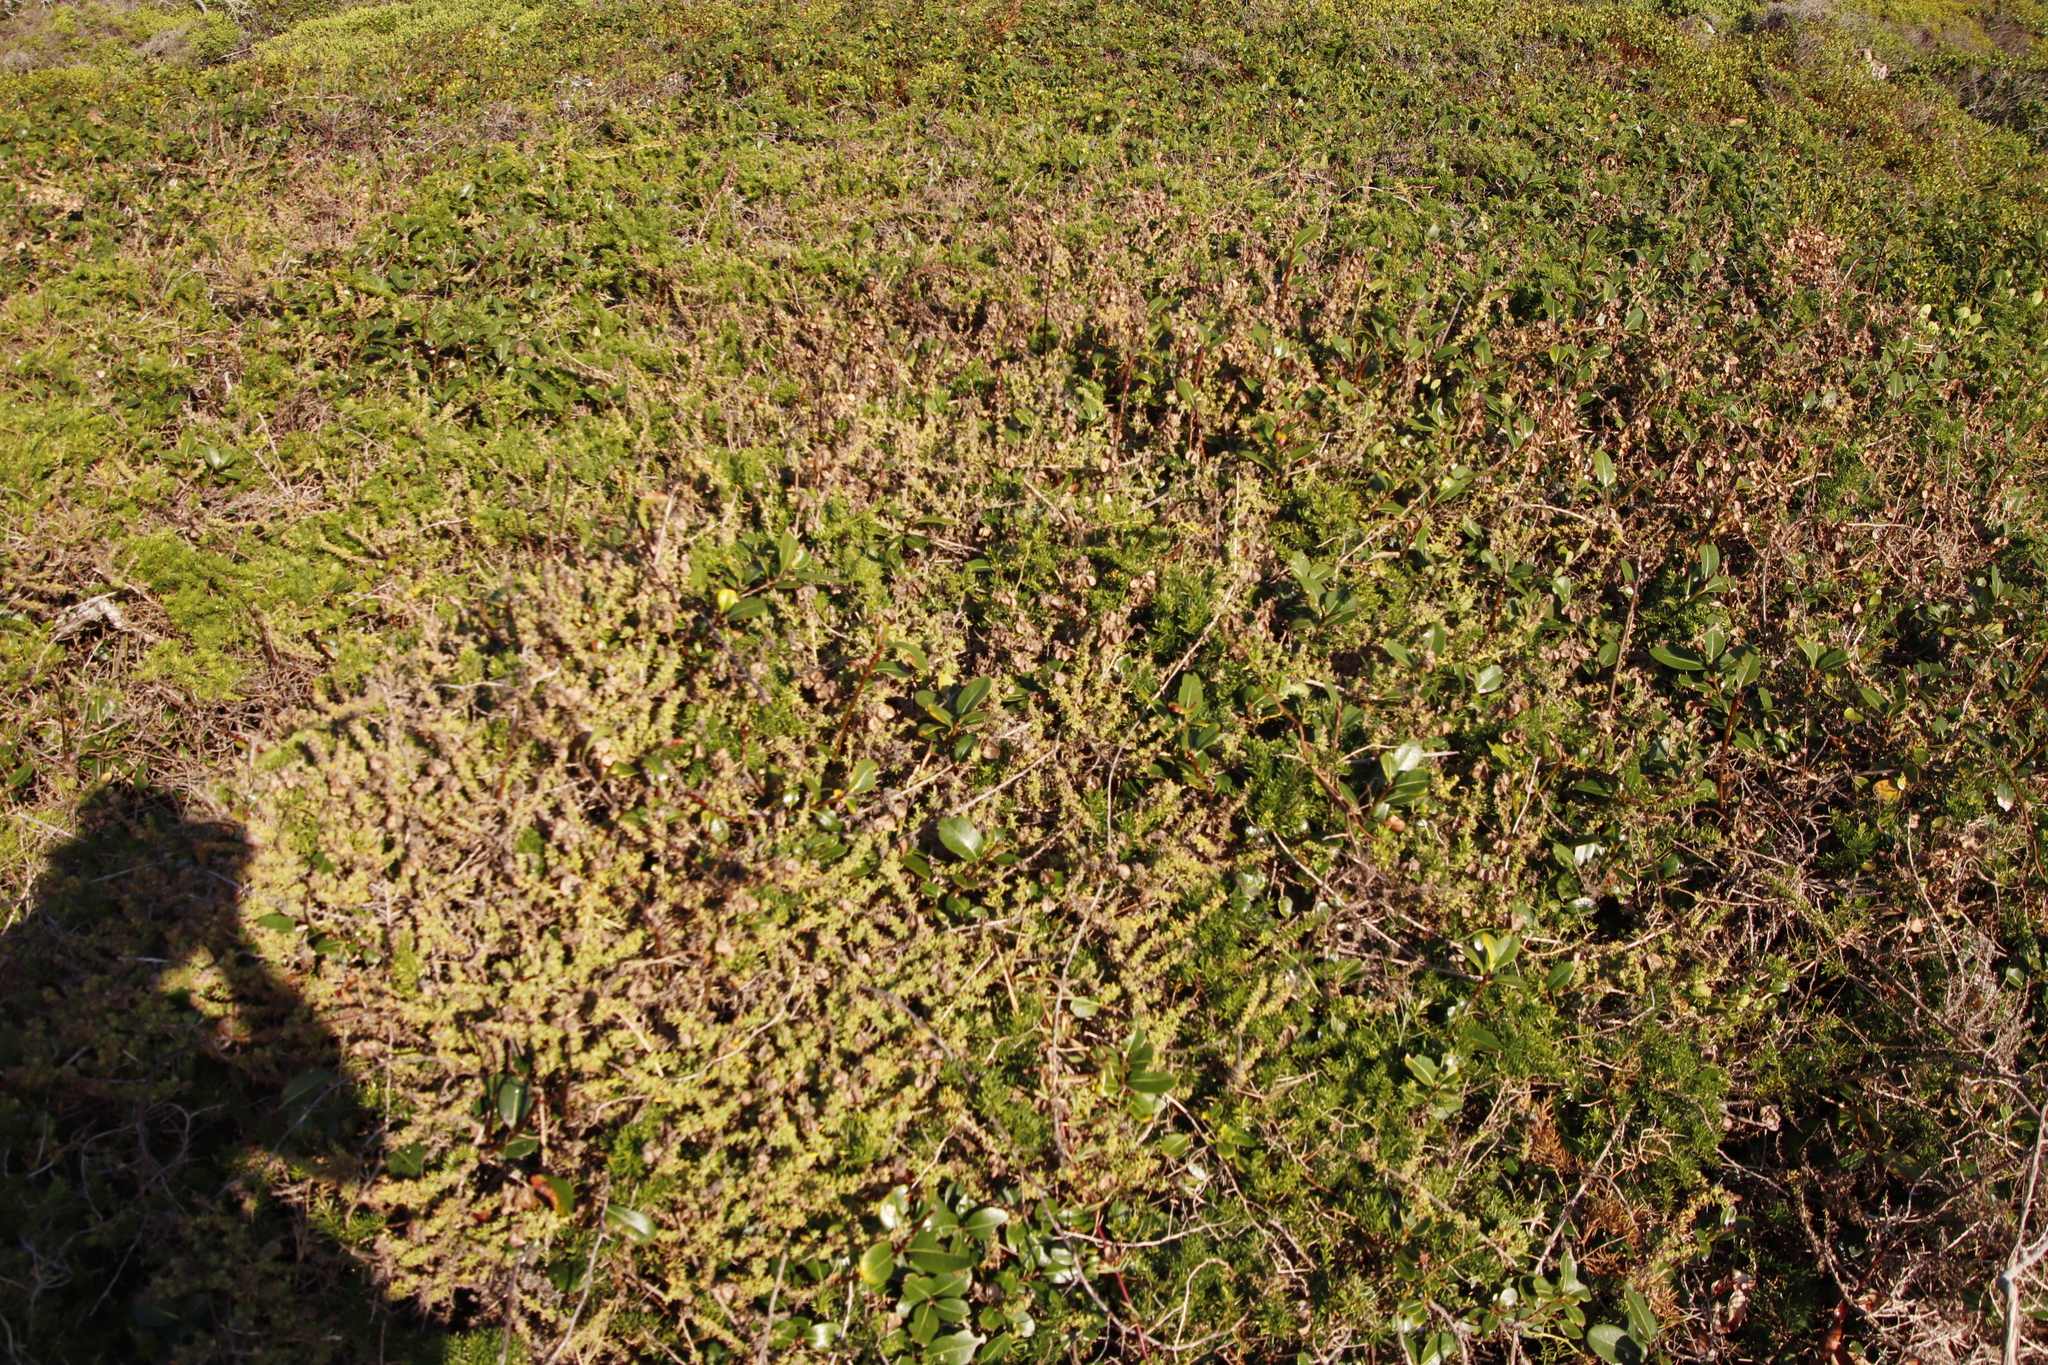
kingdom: Plantae
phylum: Tracheophyta
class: Magnoliopsida
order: Caryophyllales
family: Aizoaceae
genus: Tetragonia
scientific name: Tetragonia fruticosa
